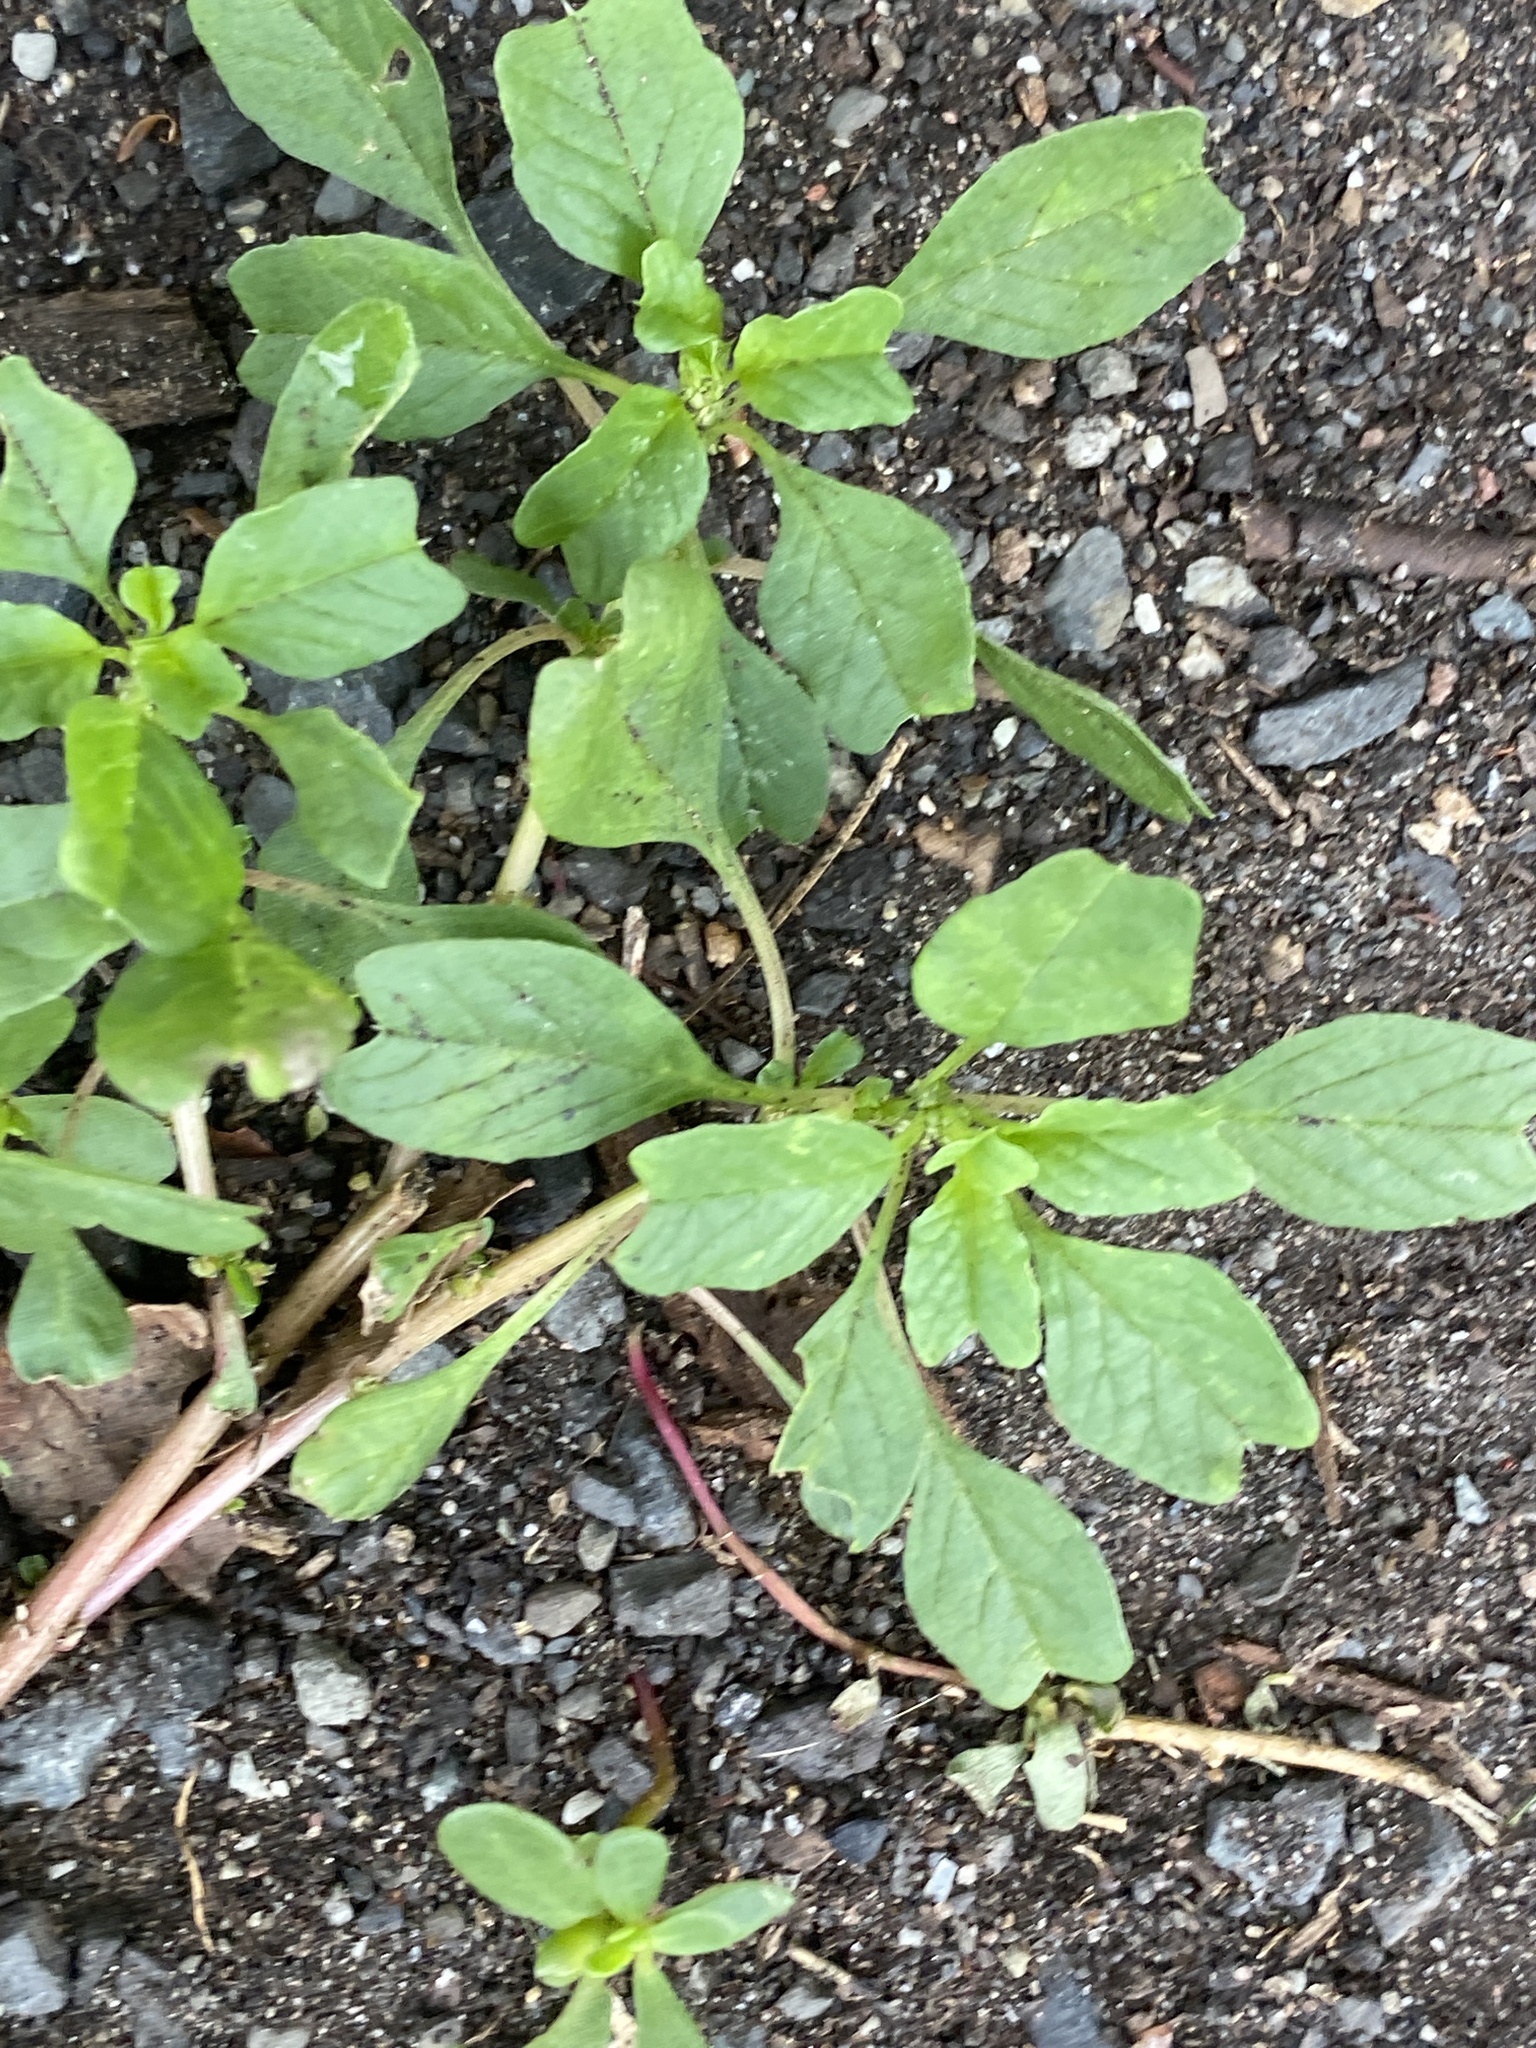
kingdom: Plantae
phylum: Tracheophyta
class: Magnoliopsida
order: Caryophyllales
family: Amaranthaceae
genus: Amaranthus
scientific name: Amaranthus blitum
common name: Purple amaranth
